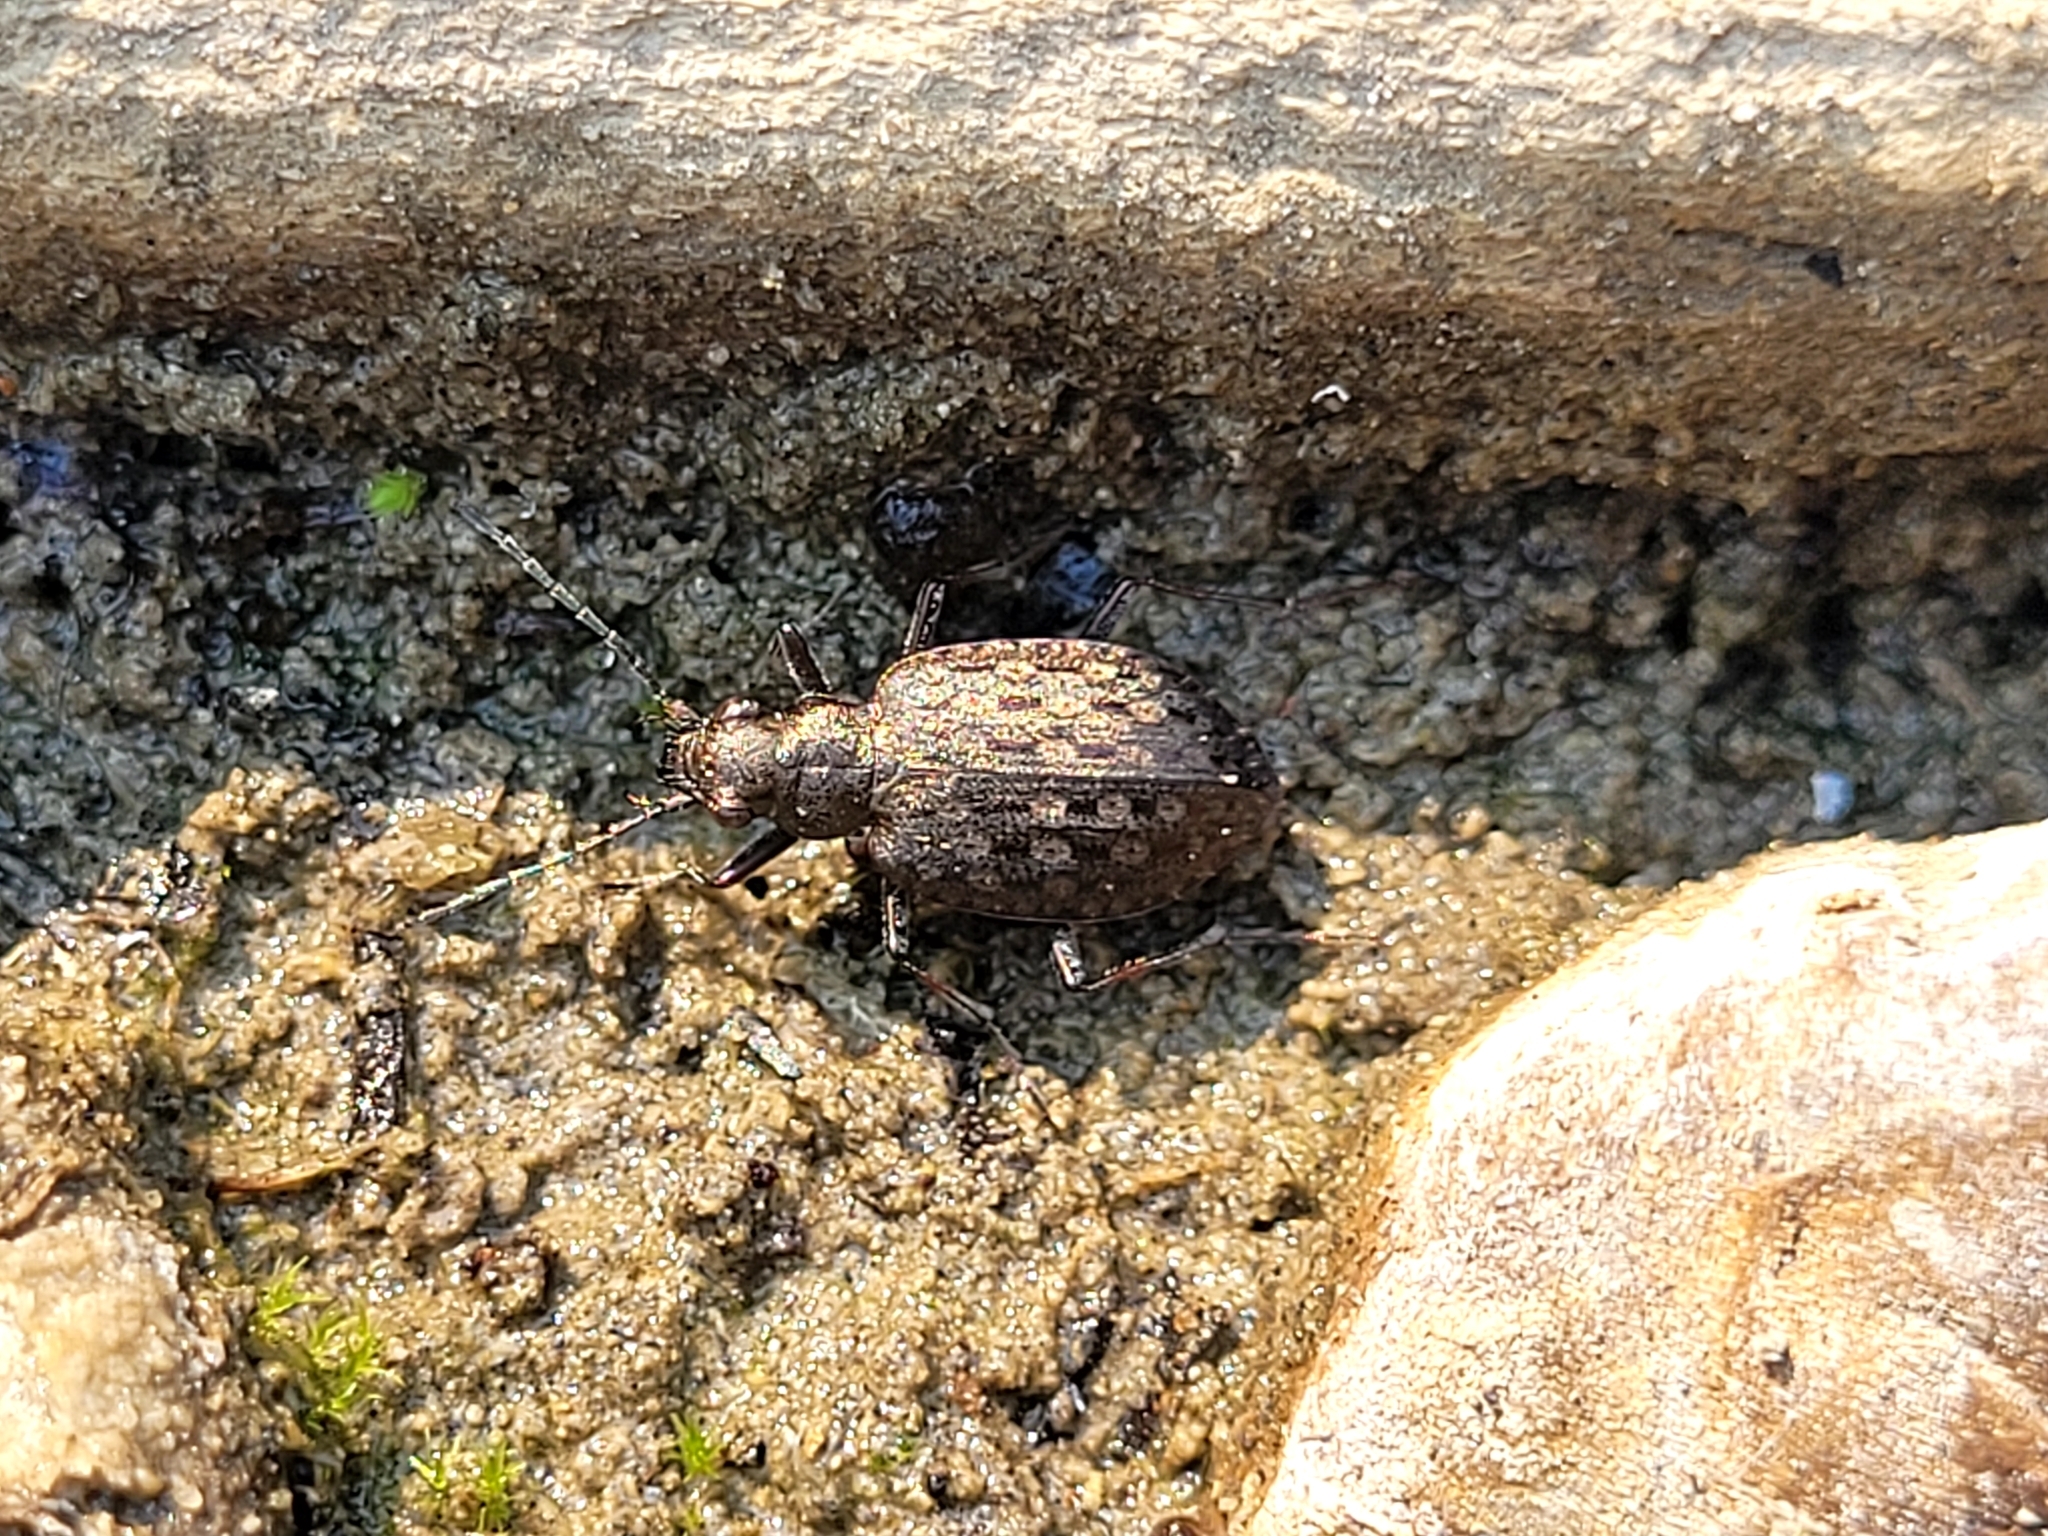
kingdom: Animalia
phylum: Arthropoda
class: Insecta
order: Coleoptera
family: Carabidae
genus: Opisthius
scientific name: Opisthius richardsoni
